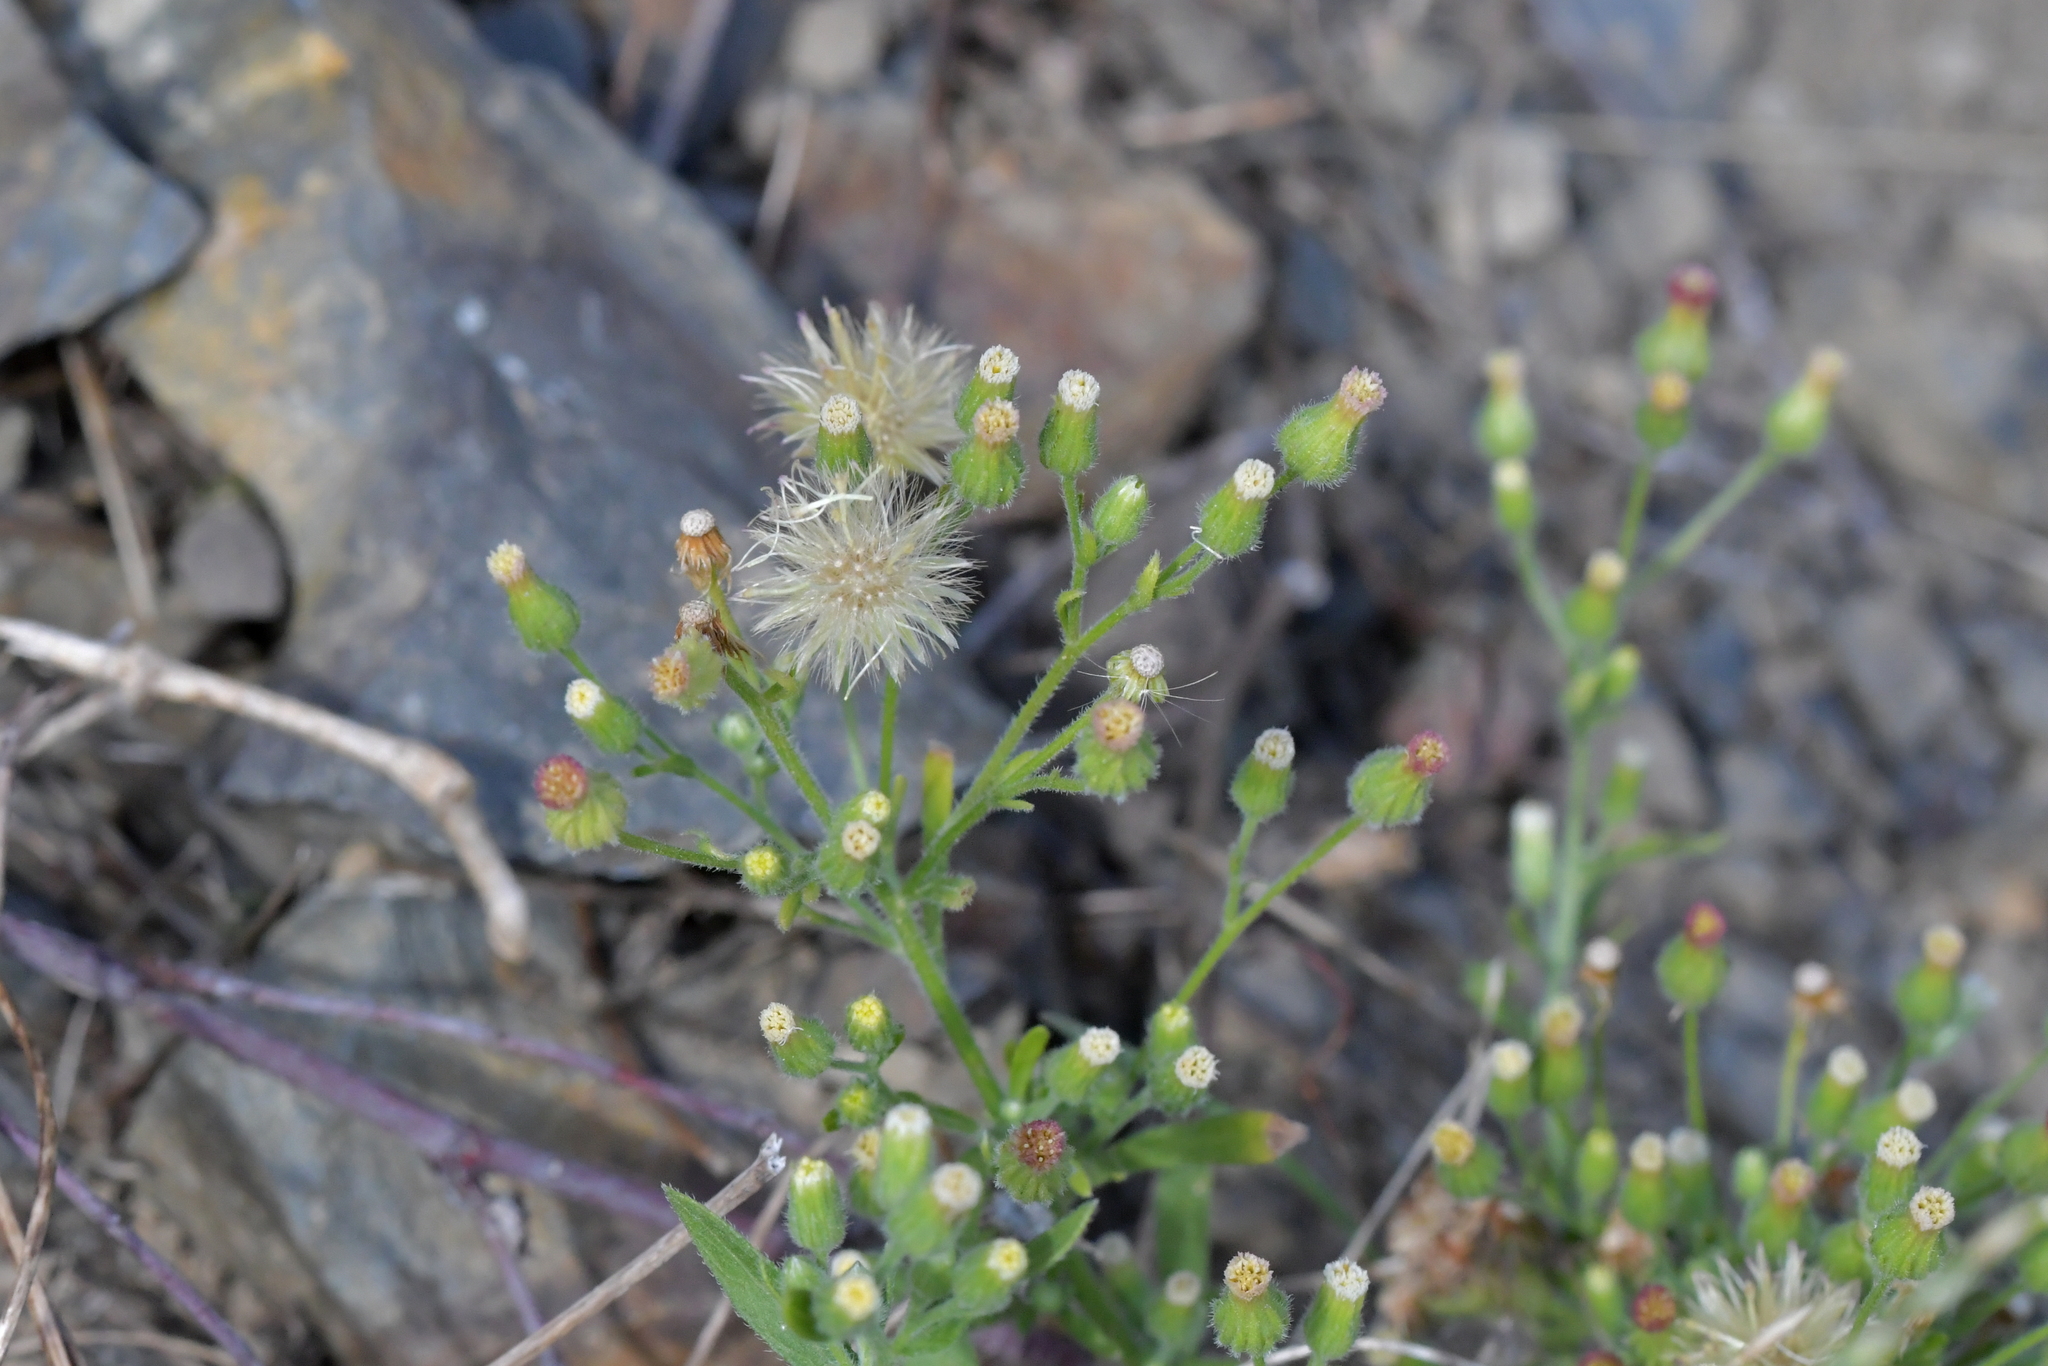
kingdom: Plantae
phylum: Tracheophyta
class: Magnoliopsida
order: Asterales
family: Asteraceae
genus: Erigeron
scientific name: Erigeron sumatrensis
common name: Daisy
